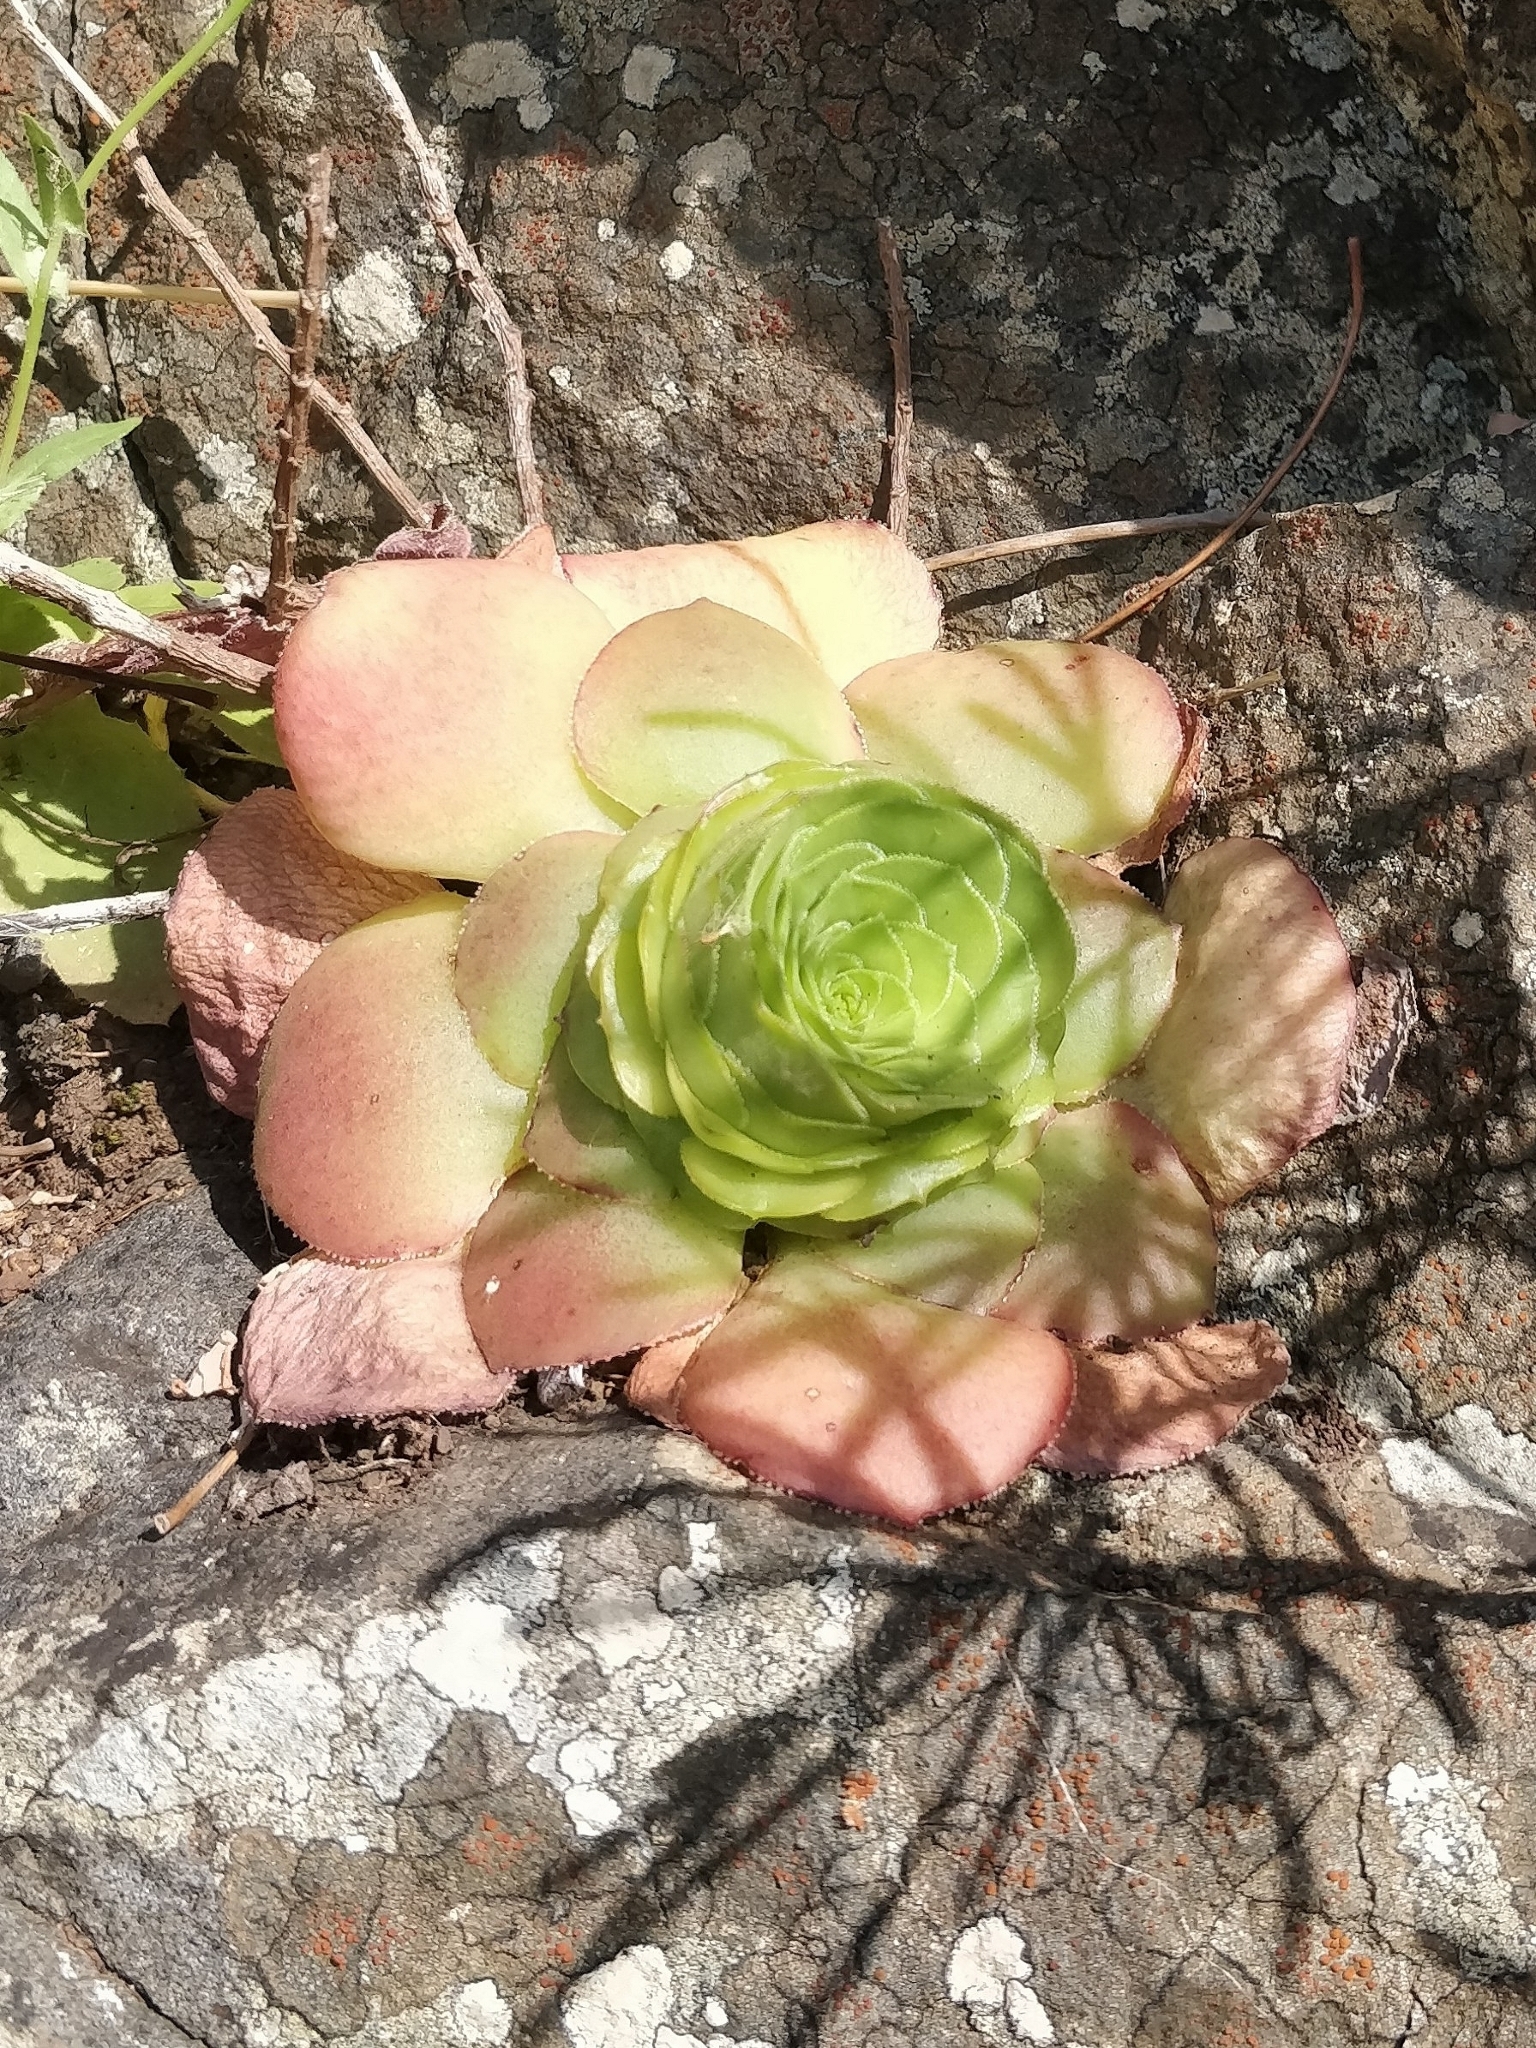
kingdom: Plantae
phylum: Tracheophyta
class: Magnoliopsida
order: Saxifragales
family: Crassulaceae
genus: Aeonium
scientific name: Aeonium glandulosum
